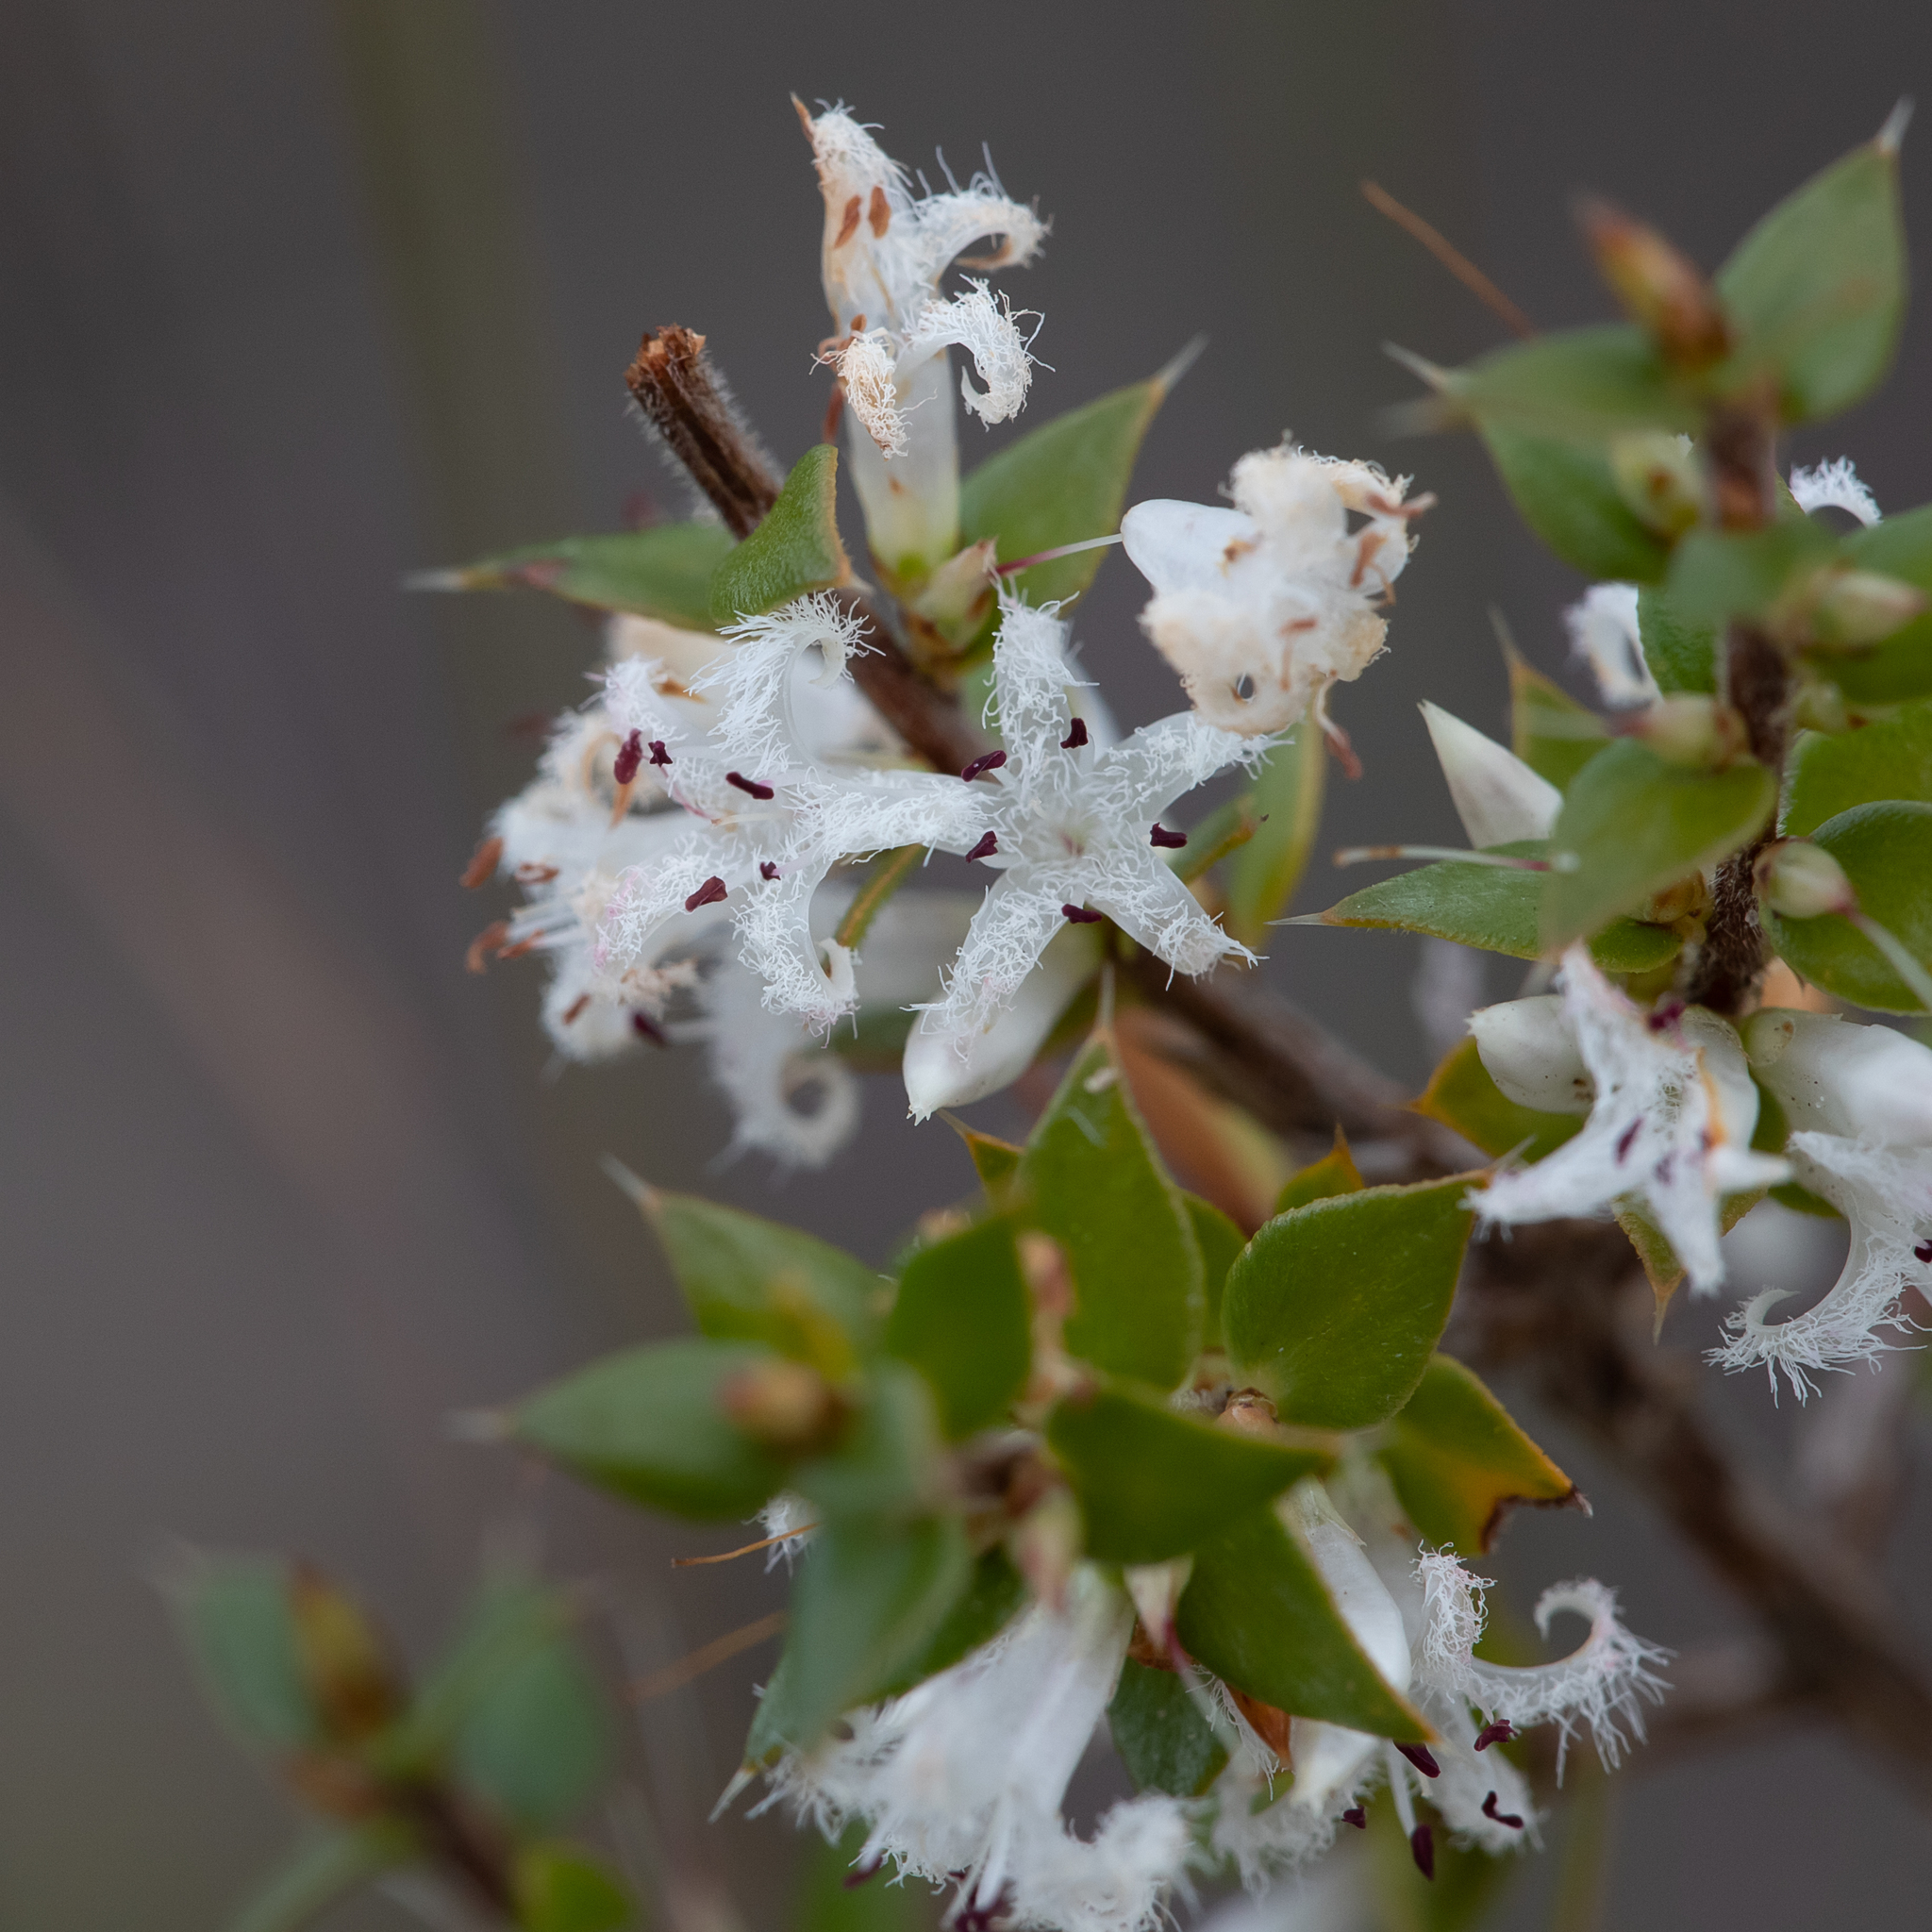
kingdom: Plantae
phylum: Tracheophyta
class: Magnoliopsida
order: Ericales
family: Ericaceae
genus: Styphelia
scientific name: Styphelia exarrhena
